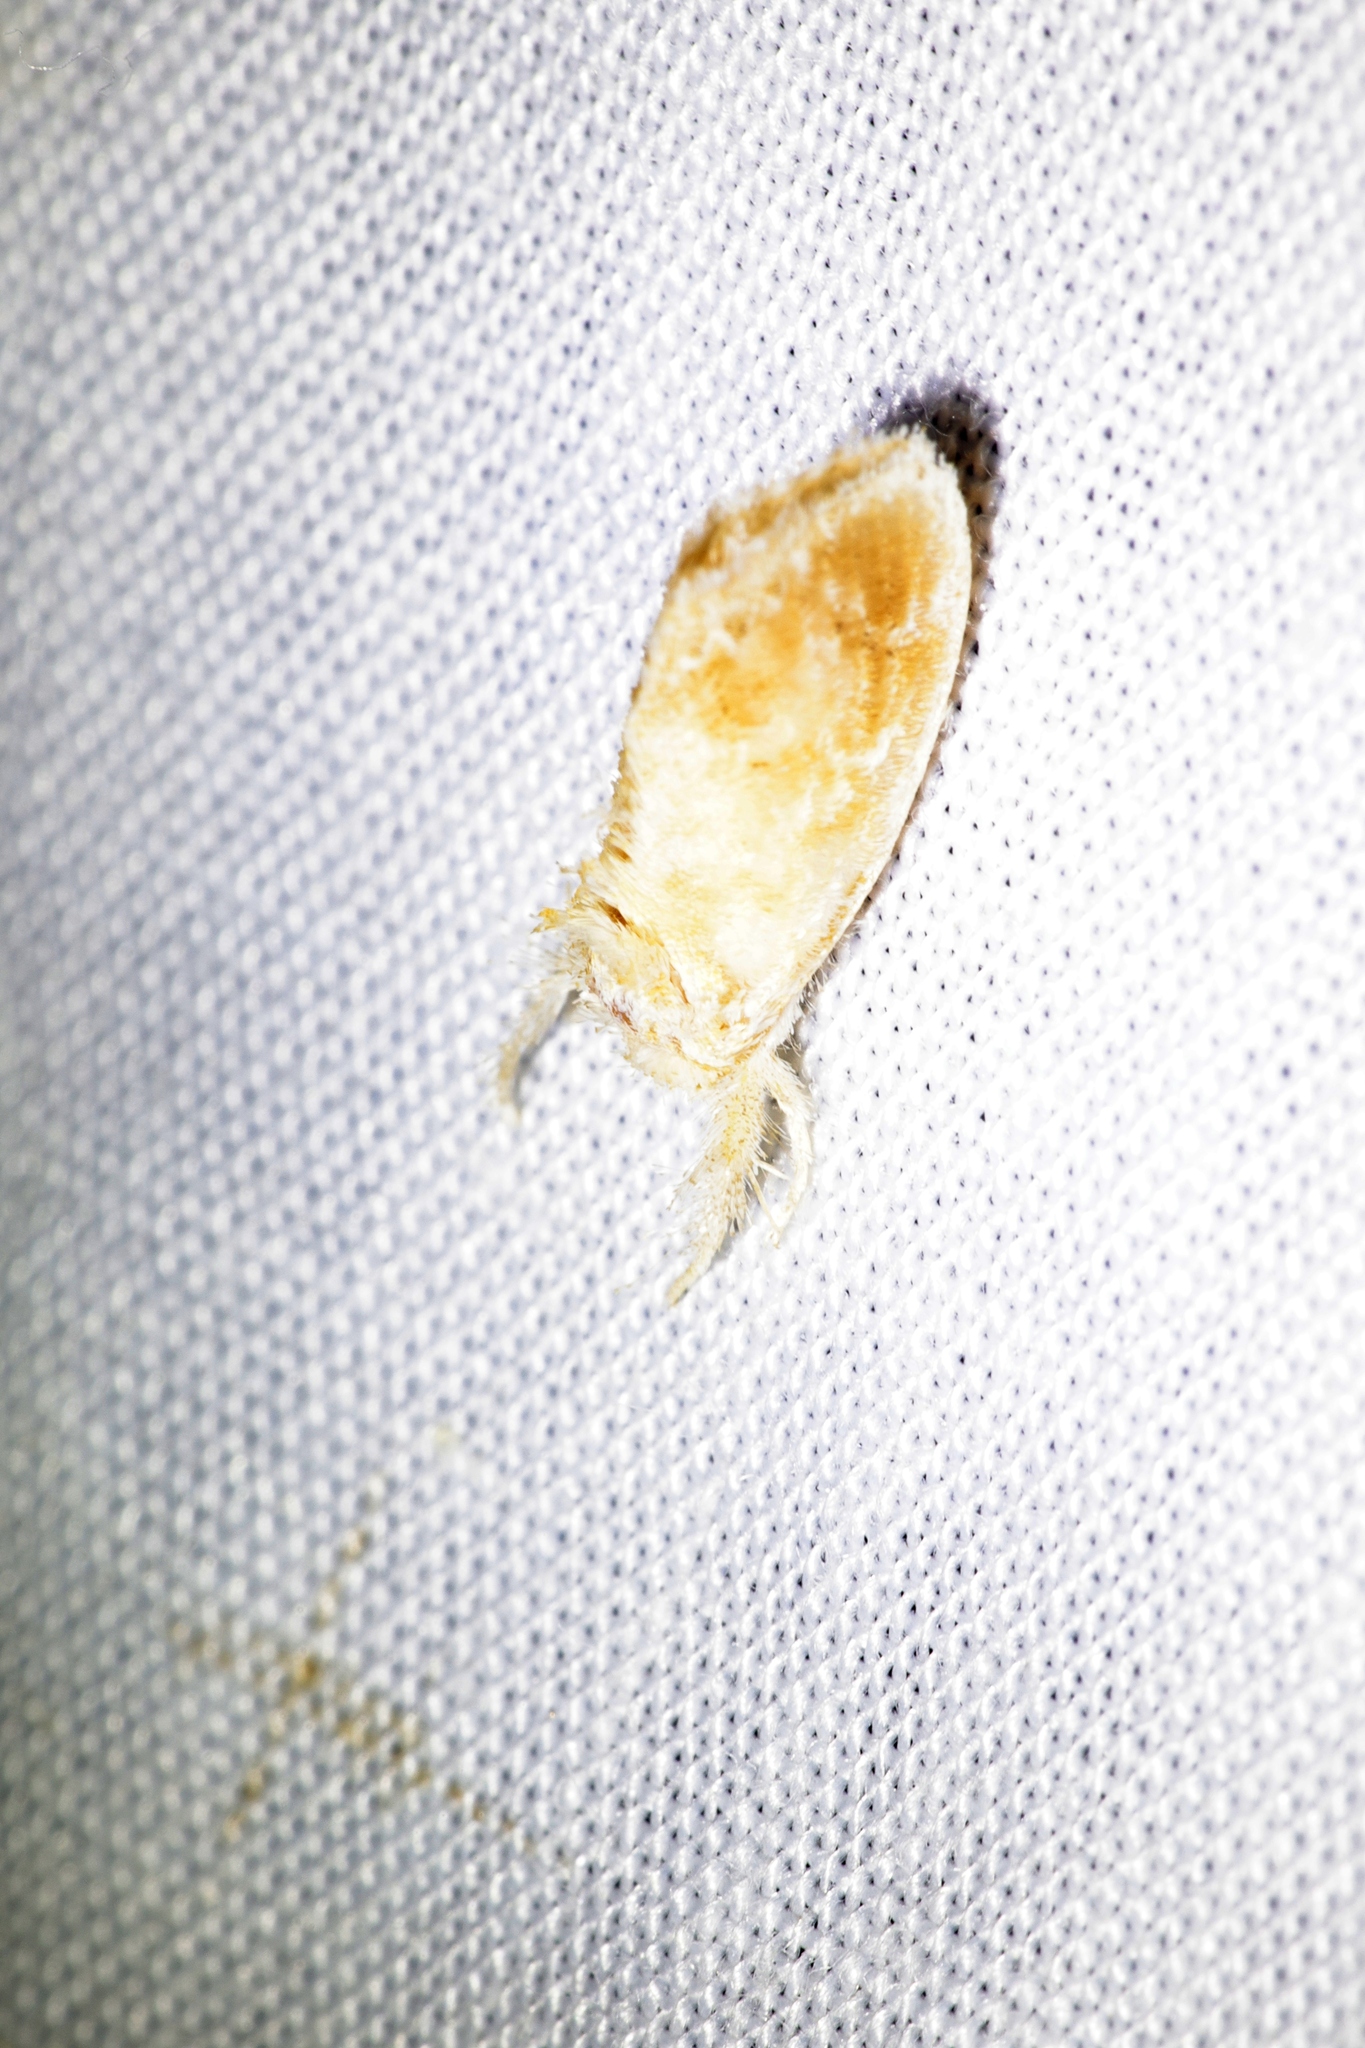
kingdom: Animalia
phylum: Arthropoda
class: Insecta
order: Lepidoptera
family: Limacodidae
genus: Narosa
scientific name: Narosa nigrisigna
